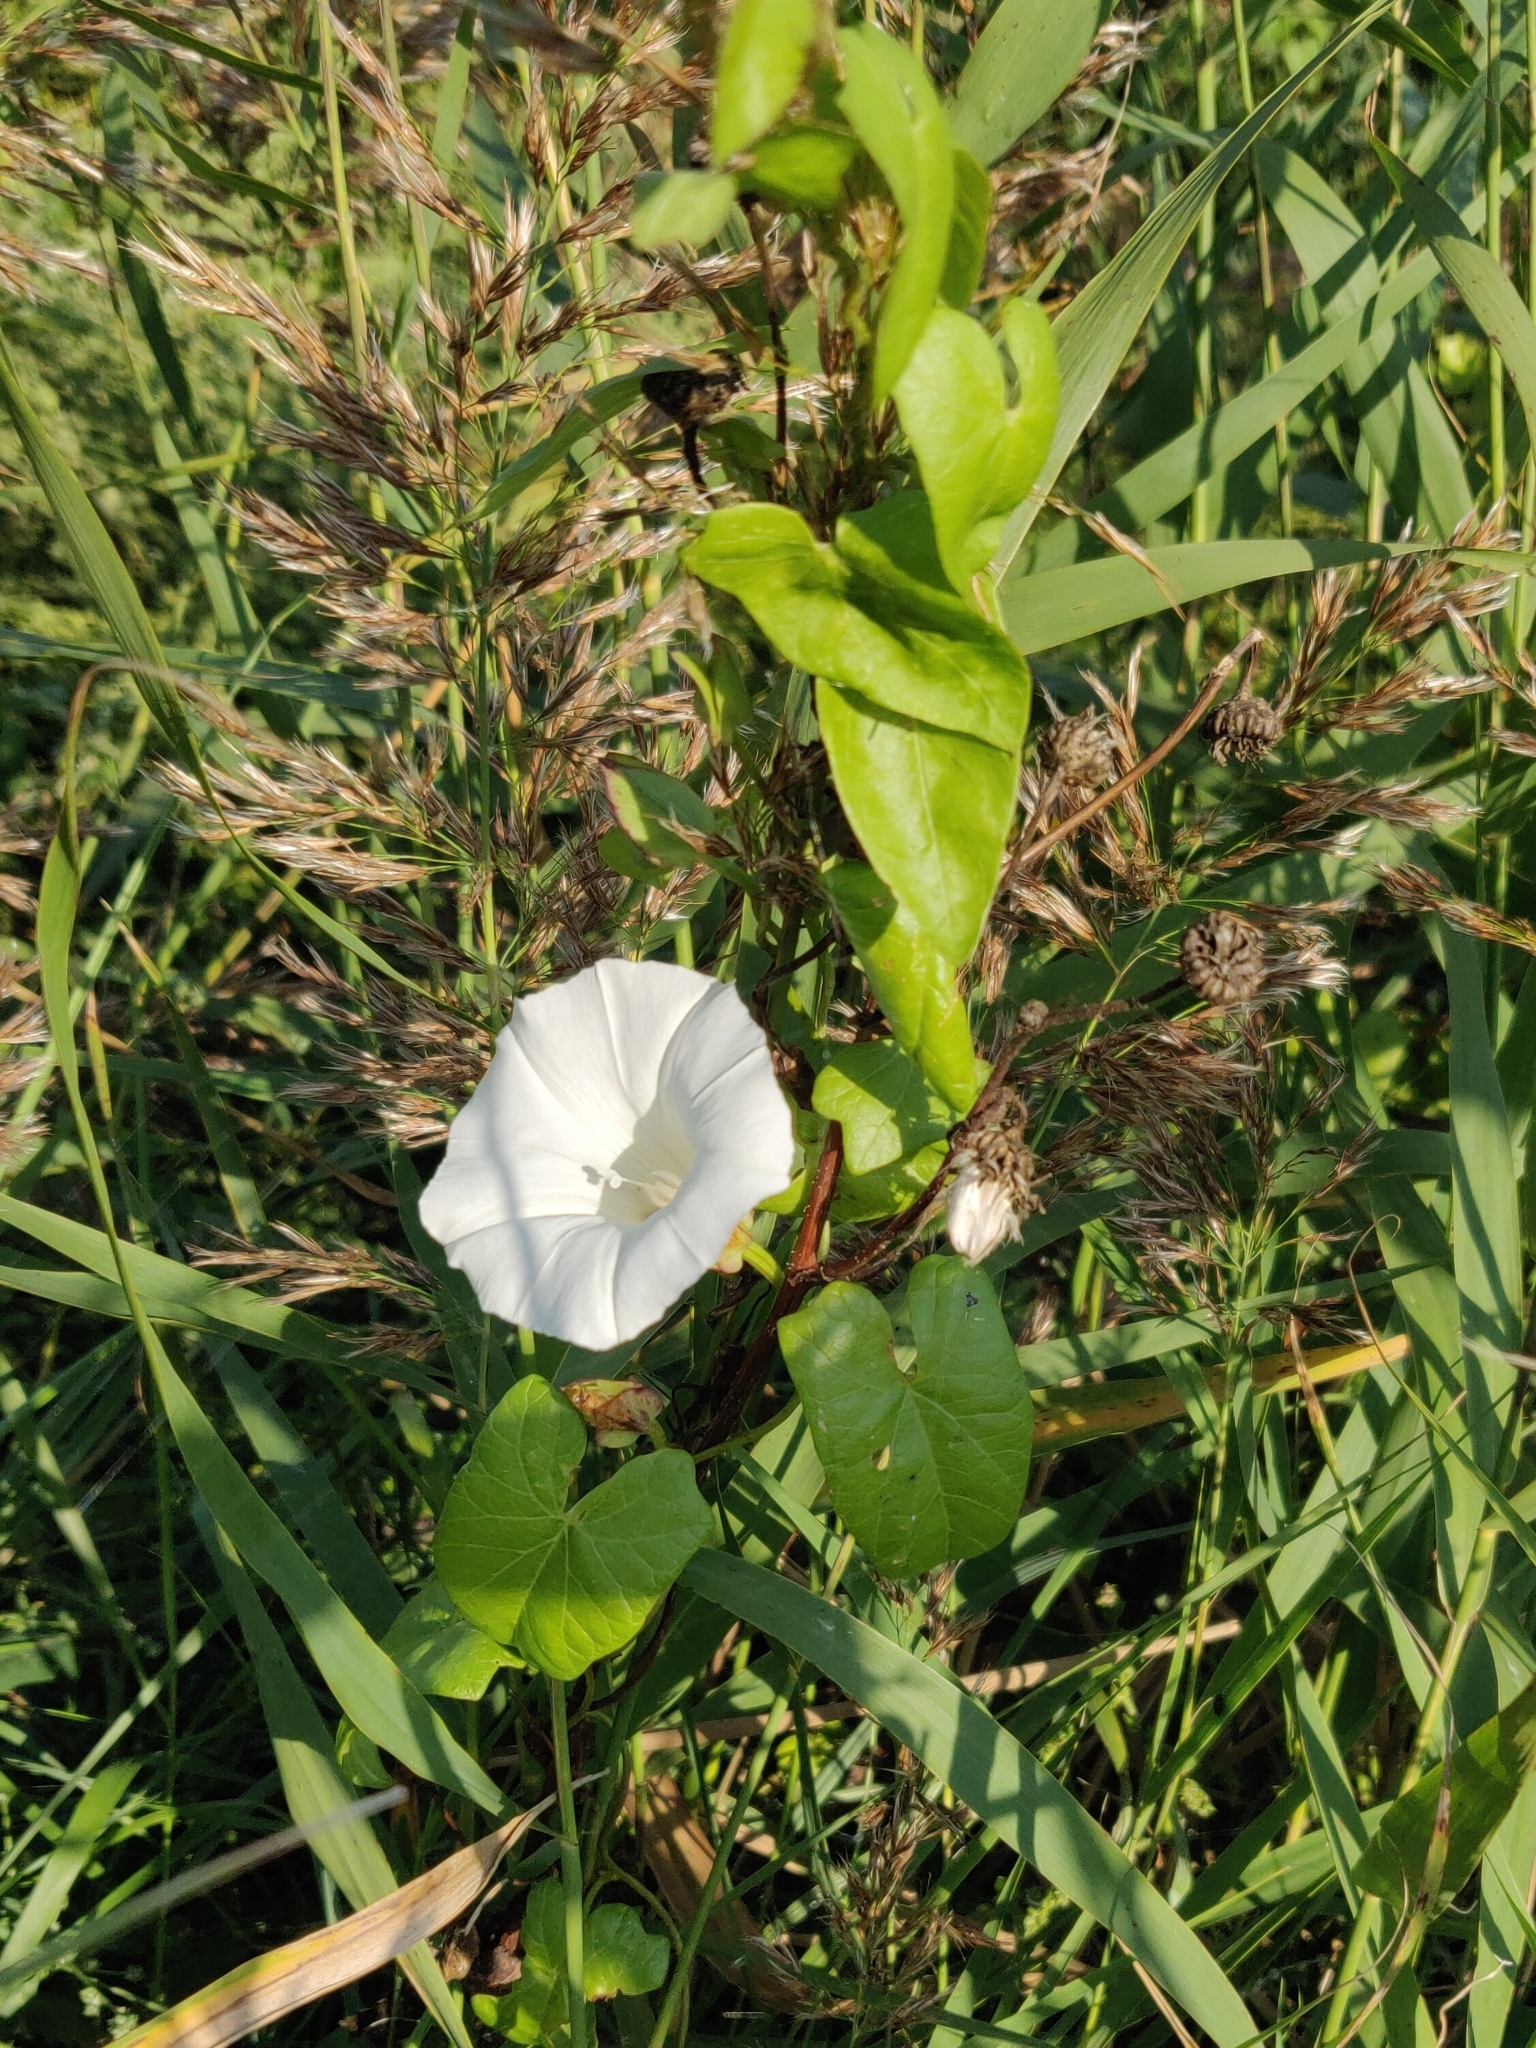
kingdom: Plantae
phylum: Tracheophyta
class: Magnoliopsida
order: Solanales
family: Convolvulaceae
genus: Calystegia
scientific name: Calystegia sepium
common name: Hedge bindweed
